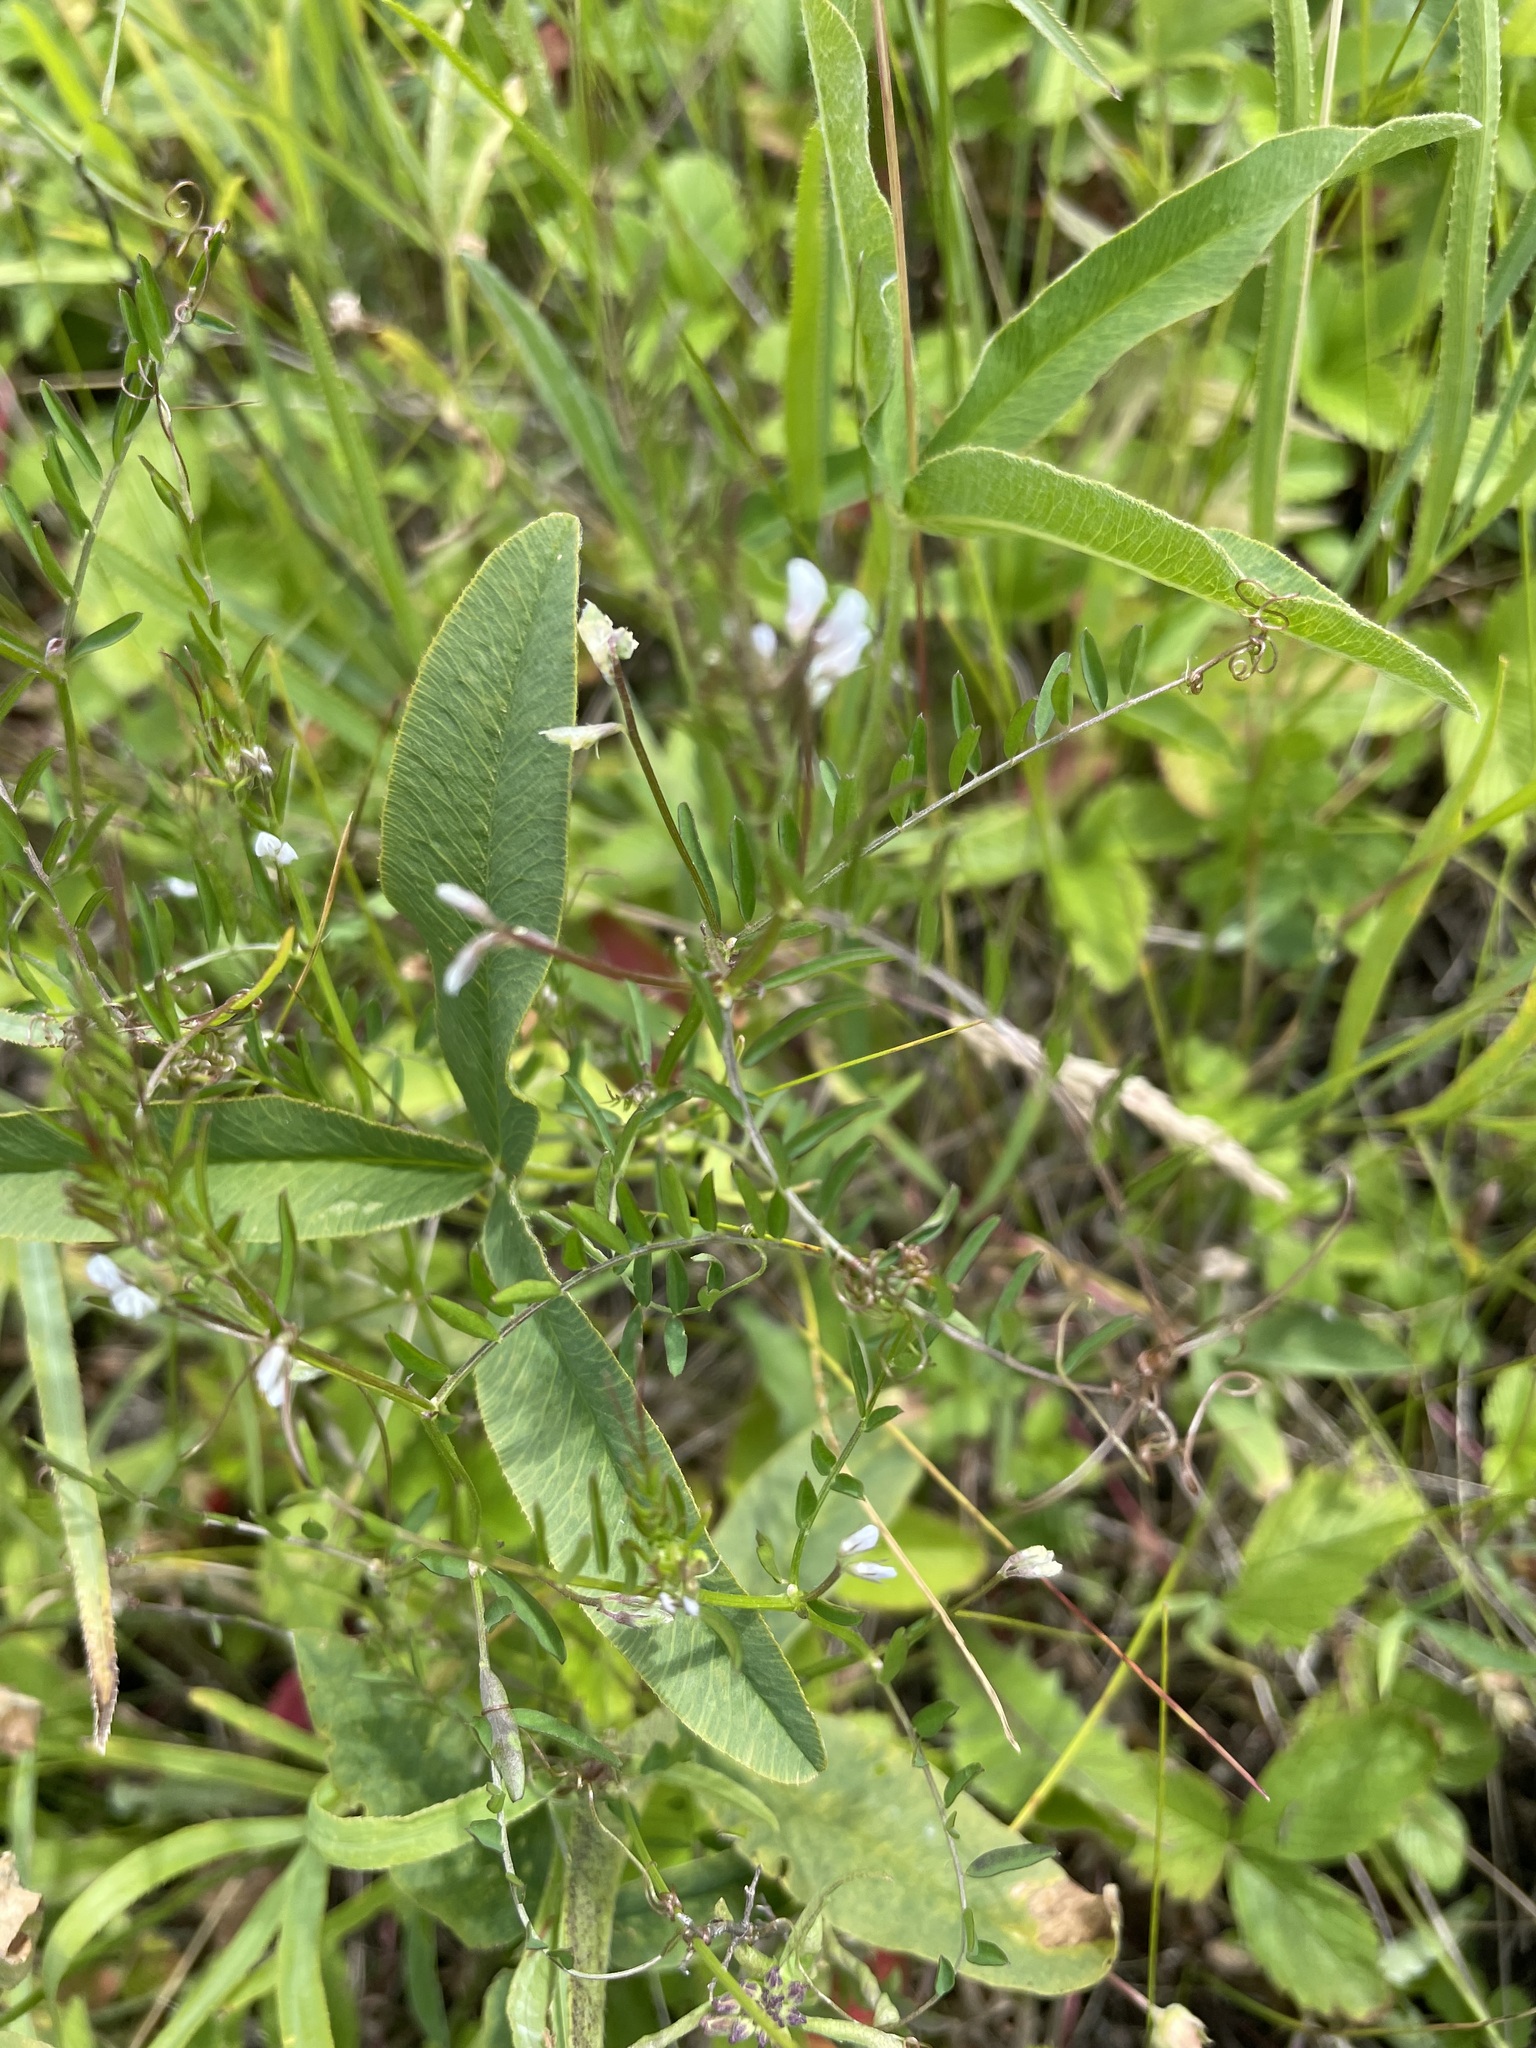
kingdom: Plantae
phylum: Tracheophyta
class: Magnoliopsida
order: Fabales
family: Fabaceae
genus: Vicia
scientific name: Vicia hirsuta
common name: Tiny vetch
